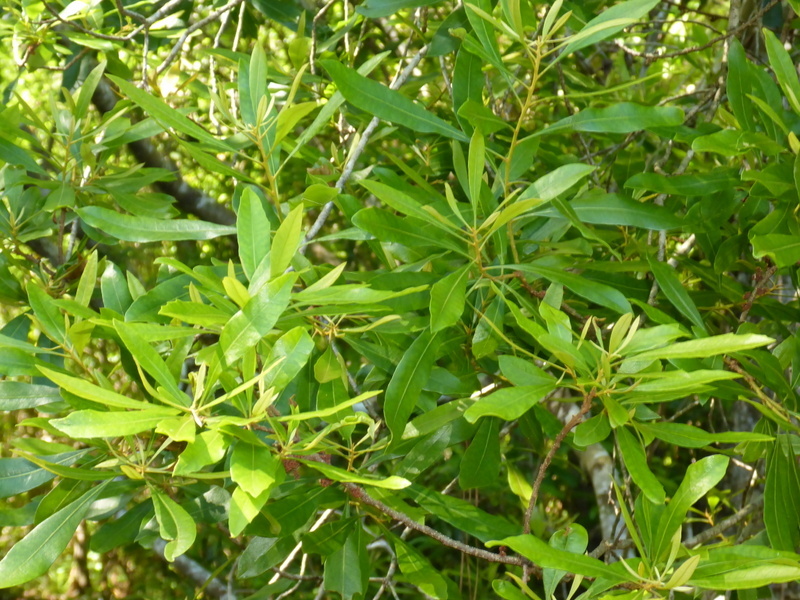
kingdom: Plantae
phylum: Tracheophyta
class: Magnoliopsida
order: Fagales
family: Myricaceae
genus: Morella
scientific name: Morella cerifera
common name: Wax myrtle
